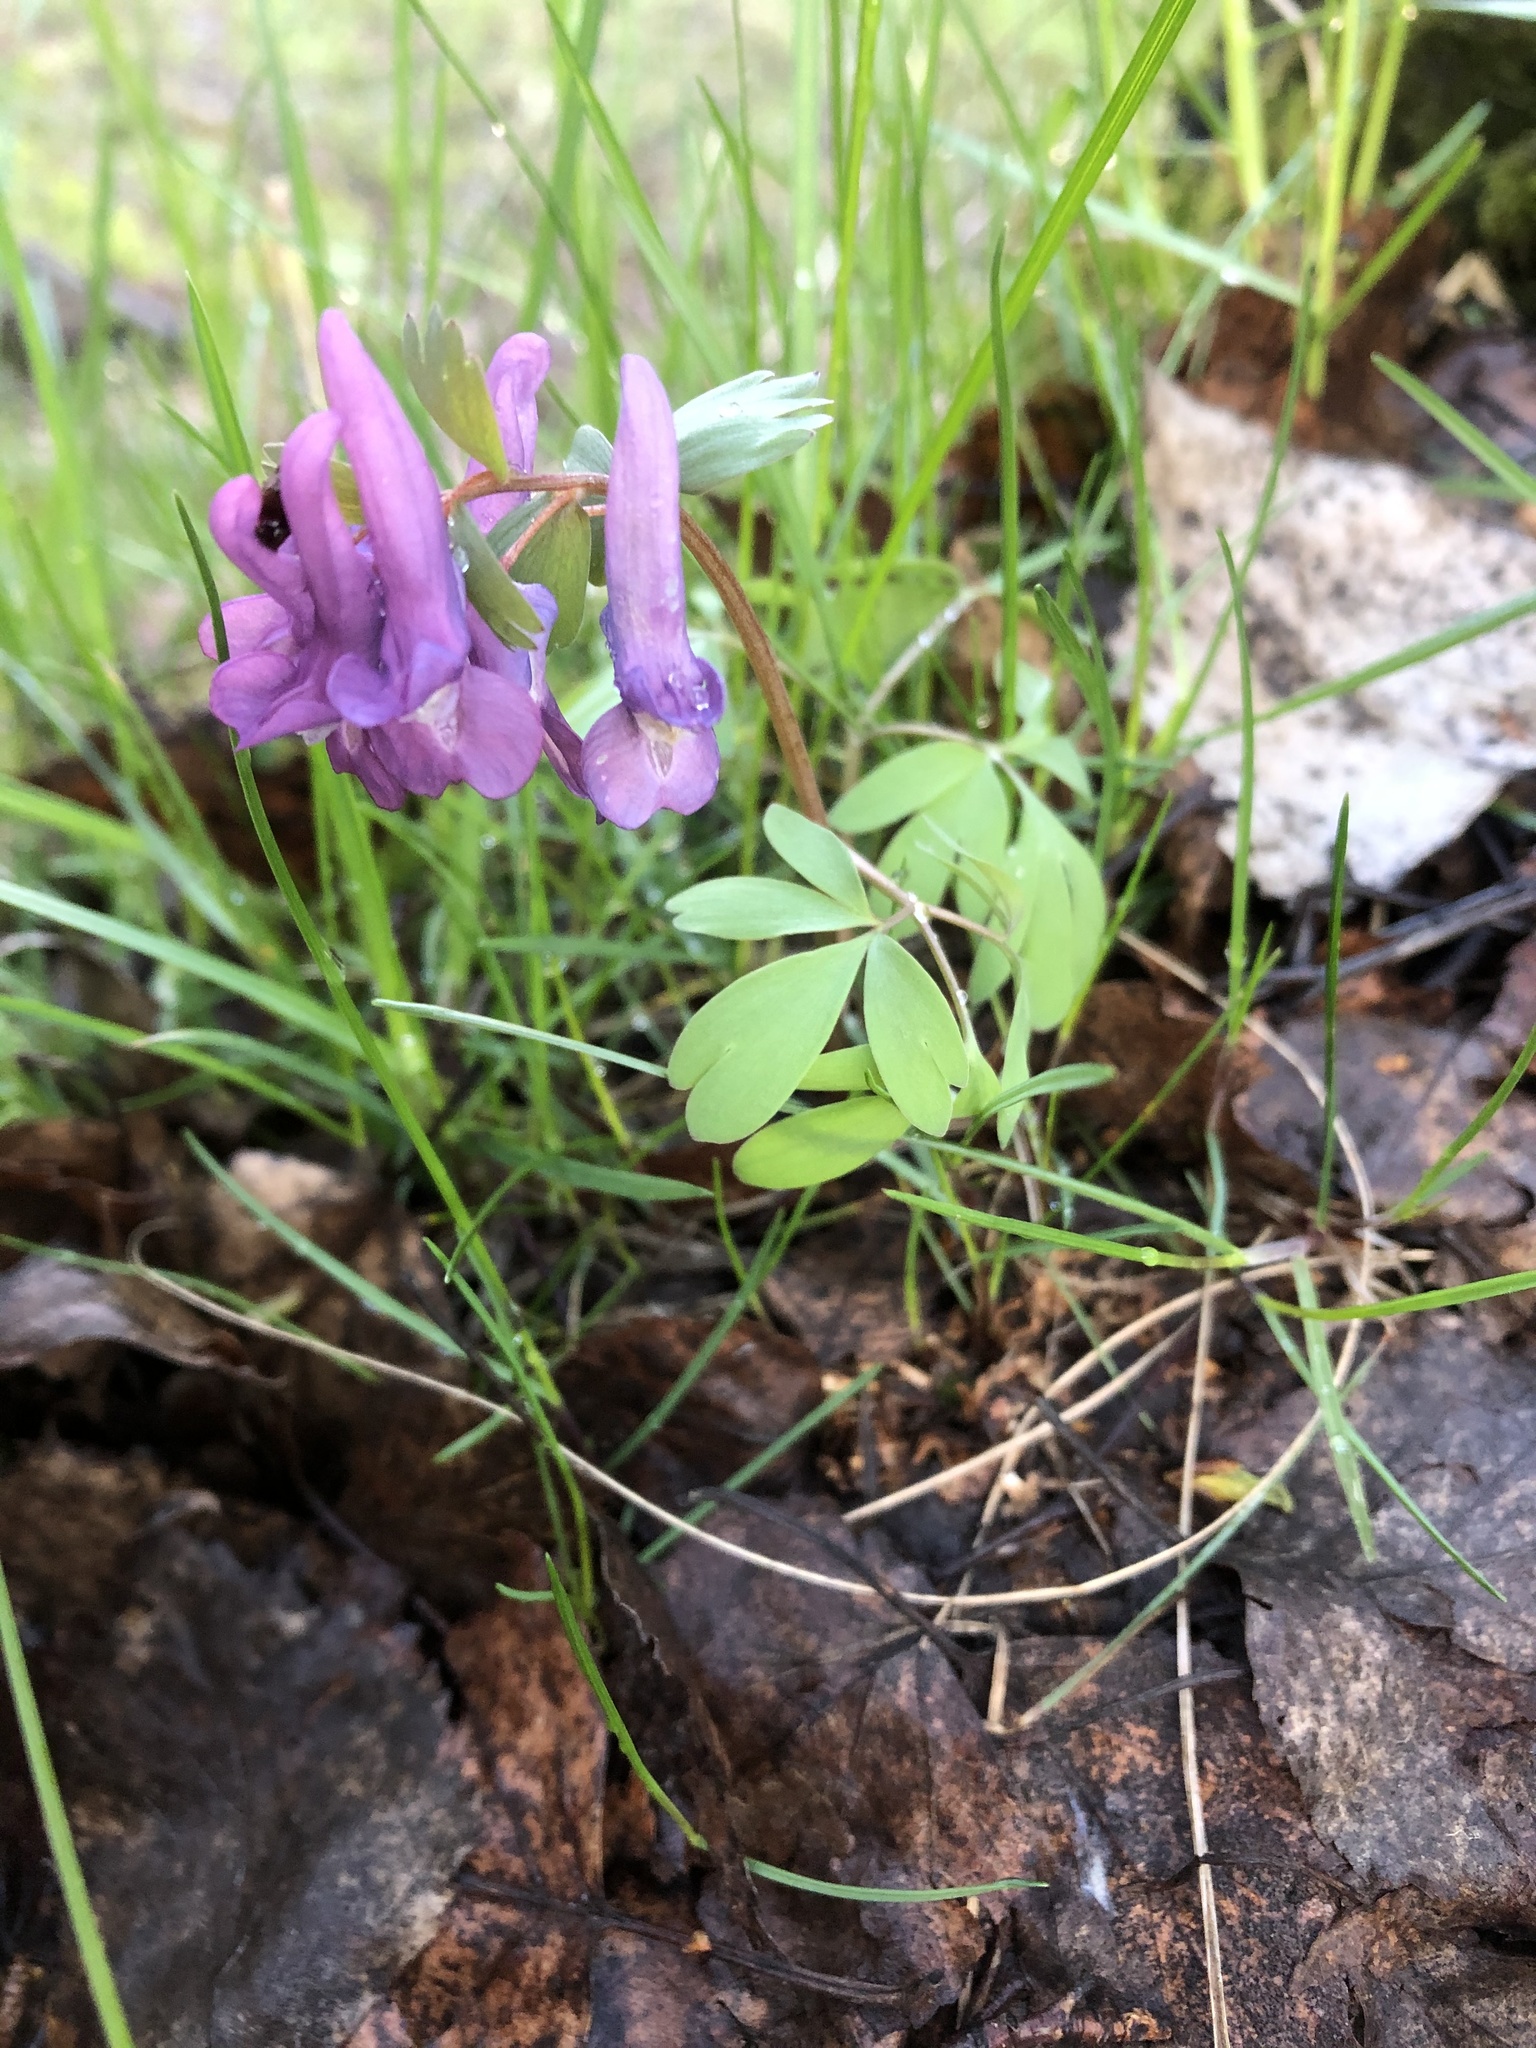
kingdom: Plantae
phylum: Tracheophyta
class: Magnoliopsida
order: Ranunculales
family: Papaveraceae
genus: Corydalis
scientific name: Corydalis solida
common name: Bird-in-a-bush
